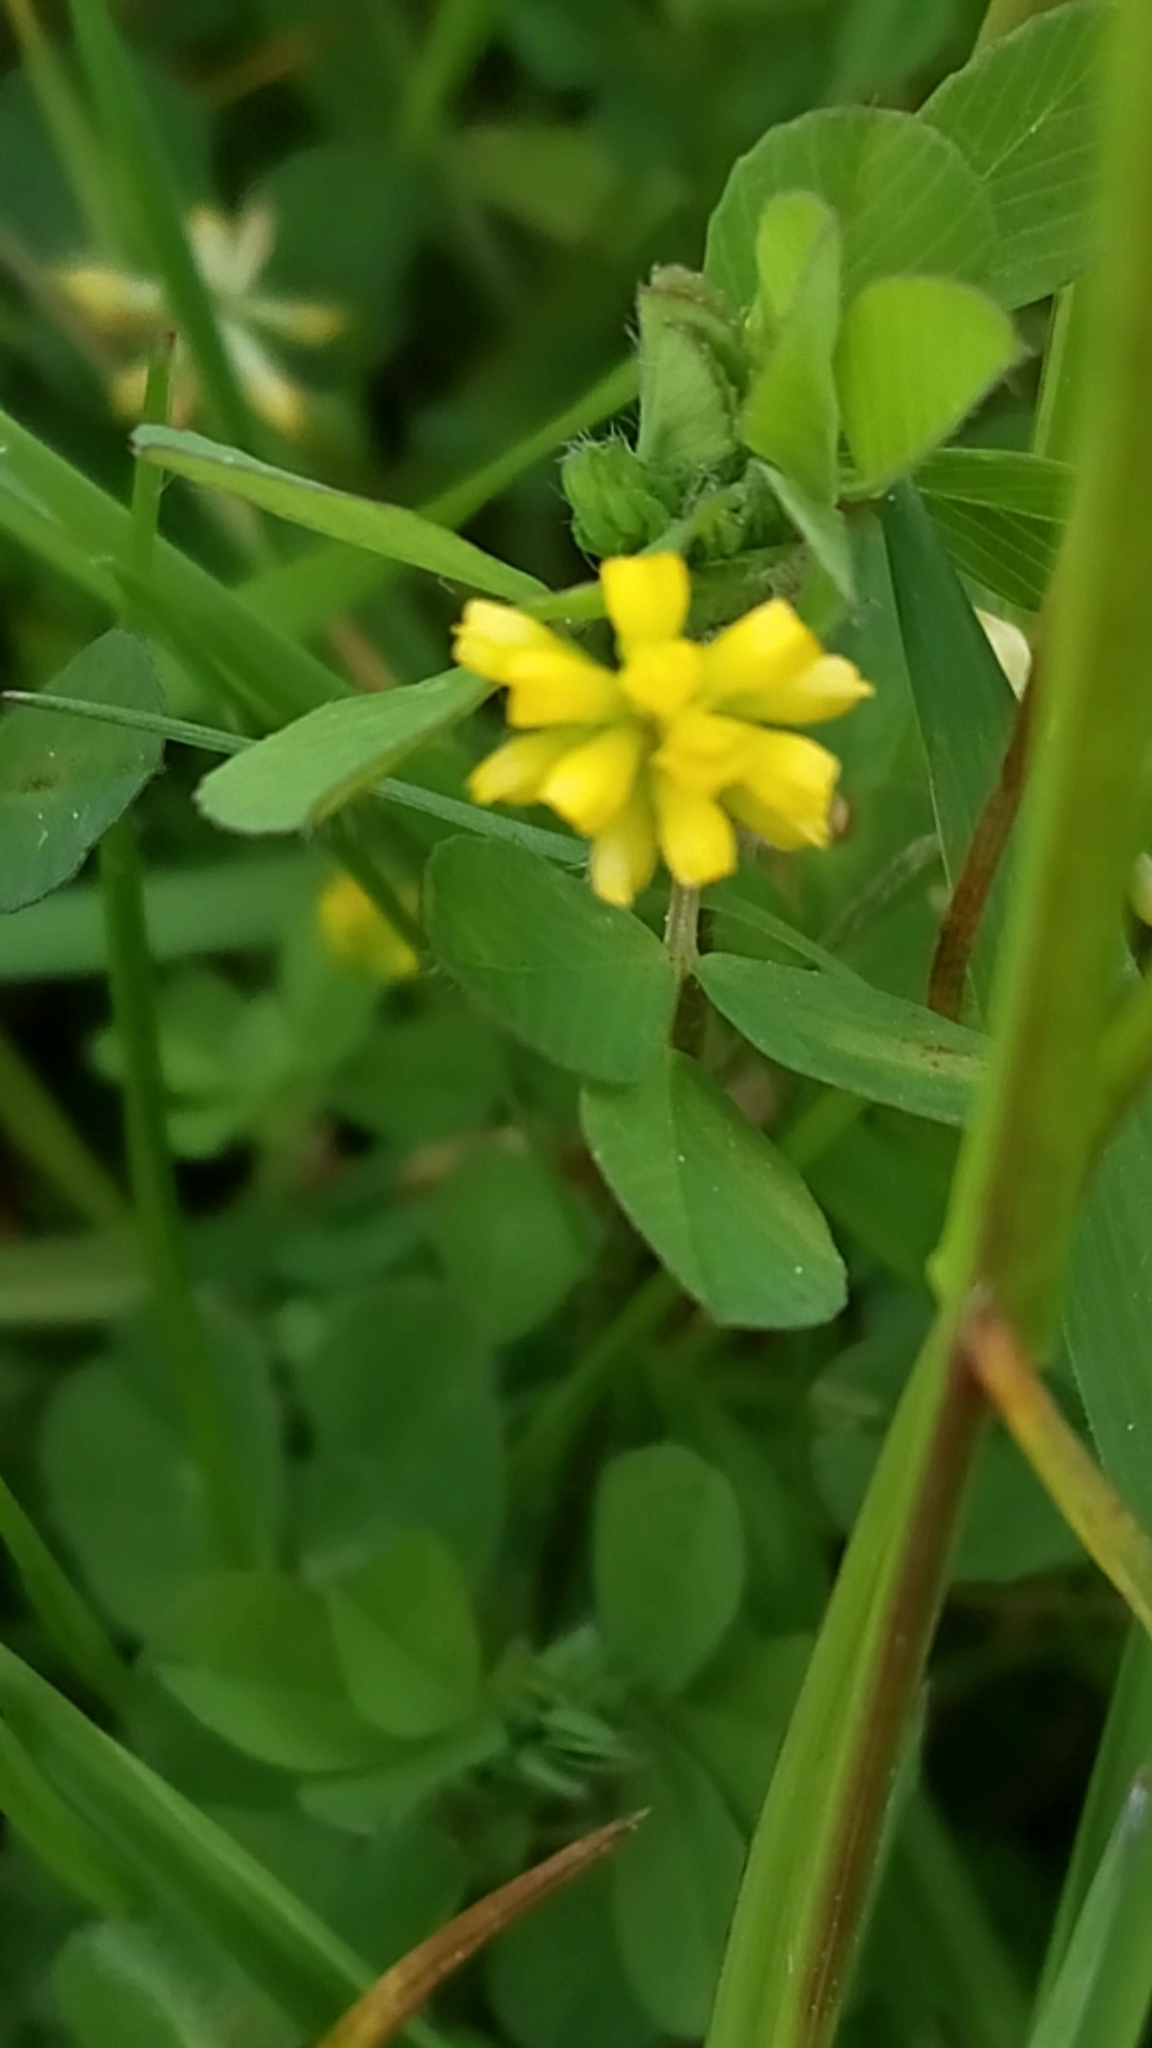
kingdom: Plantae
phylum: Tracheophyta
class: Magnoliopsida
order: Fabales
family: Fabaceae
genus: Trifolium
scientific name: Trifolium dubium
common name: Suckling clover
